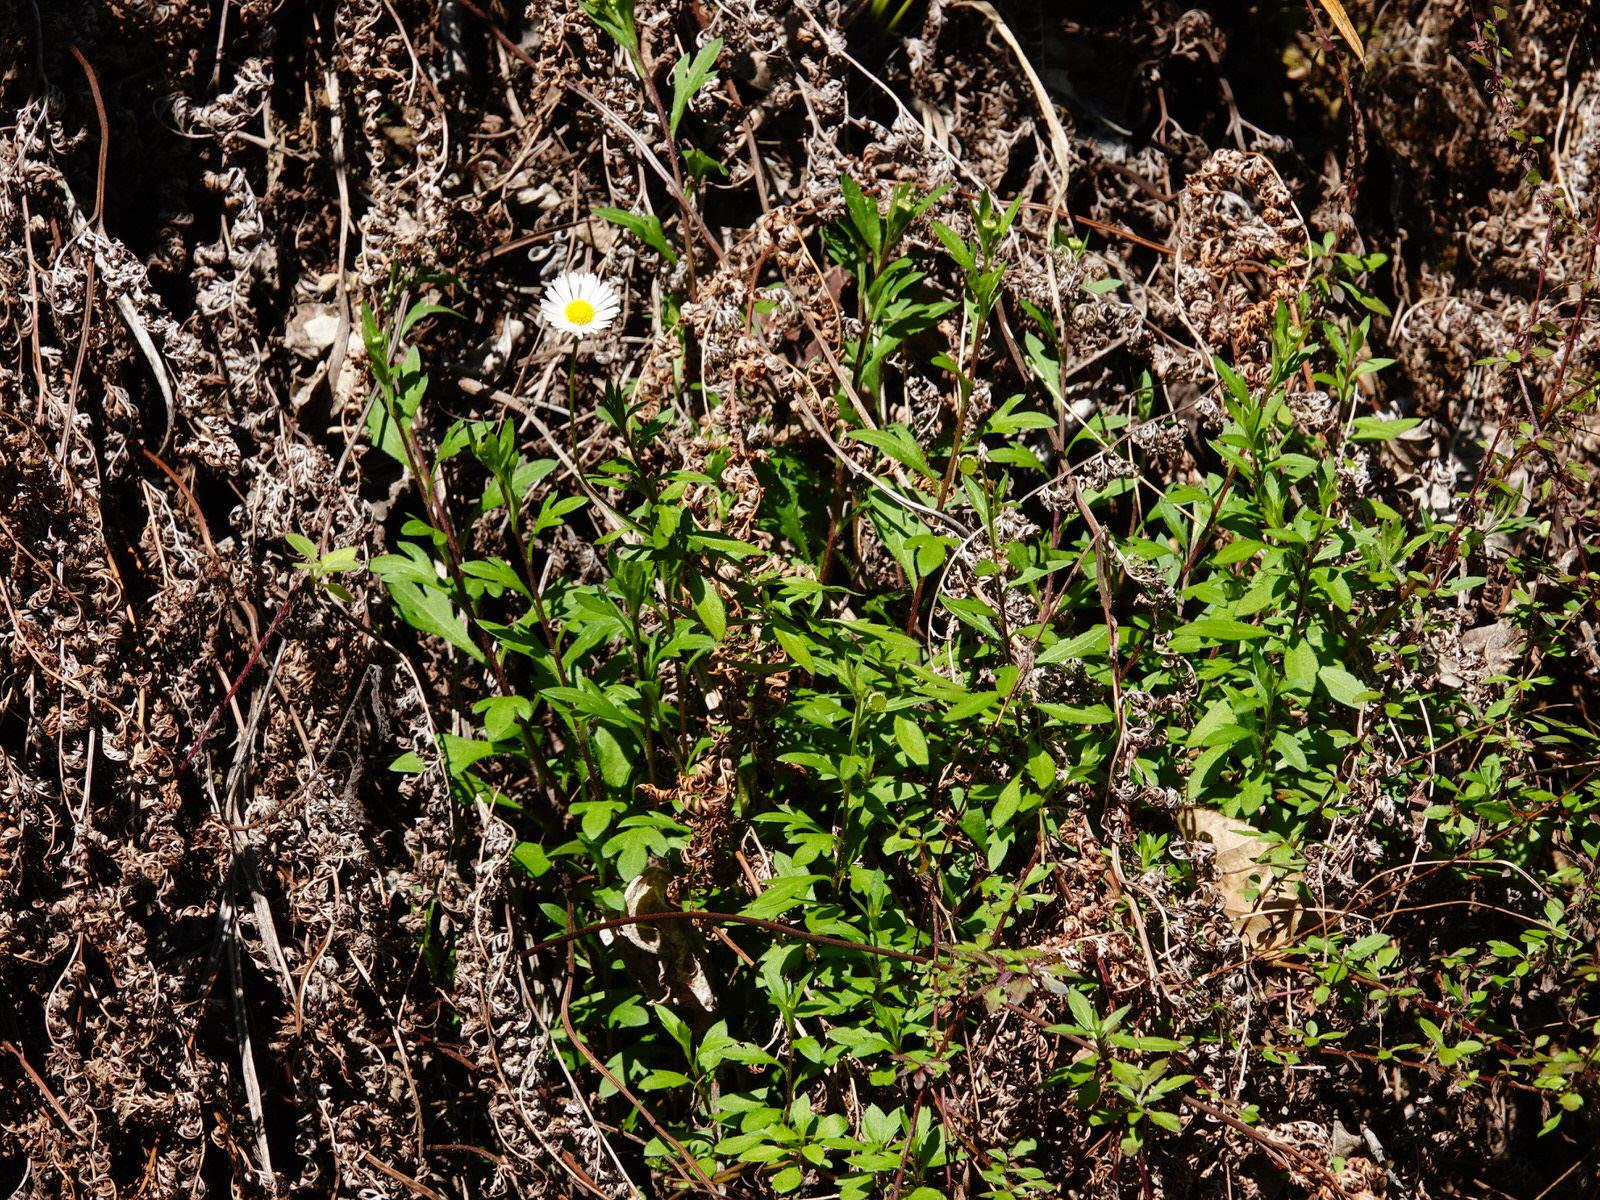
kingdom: Plantae
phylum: Tracheophyta
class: Magnoliopsida
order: Asterales
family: Asteraceae
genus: Erigeron
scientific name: Erigeron karvinskianus
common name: Mexican fleabane
